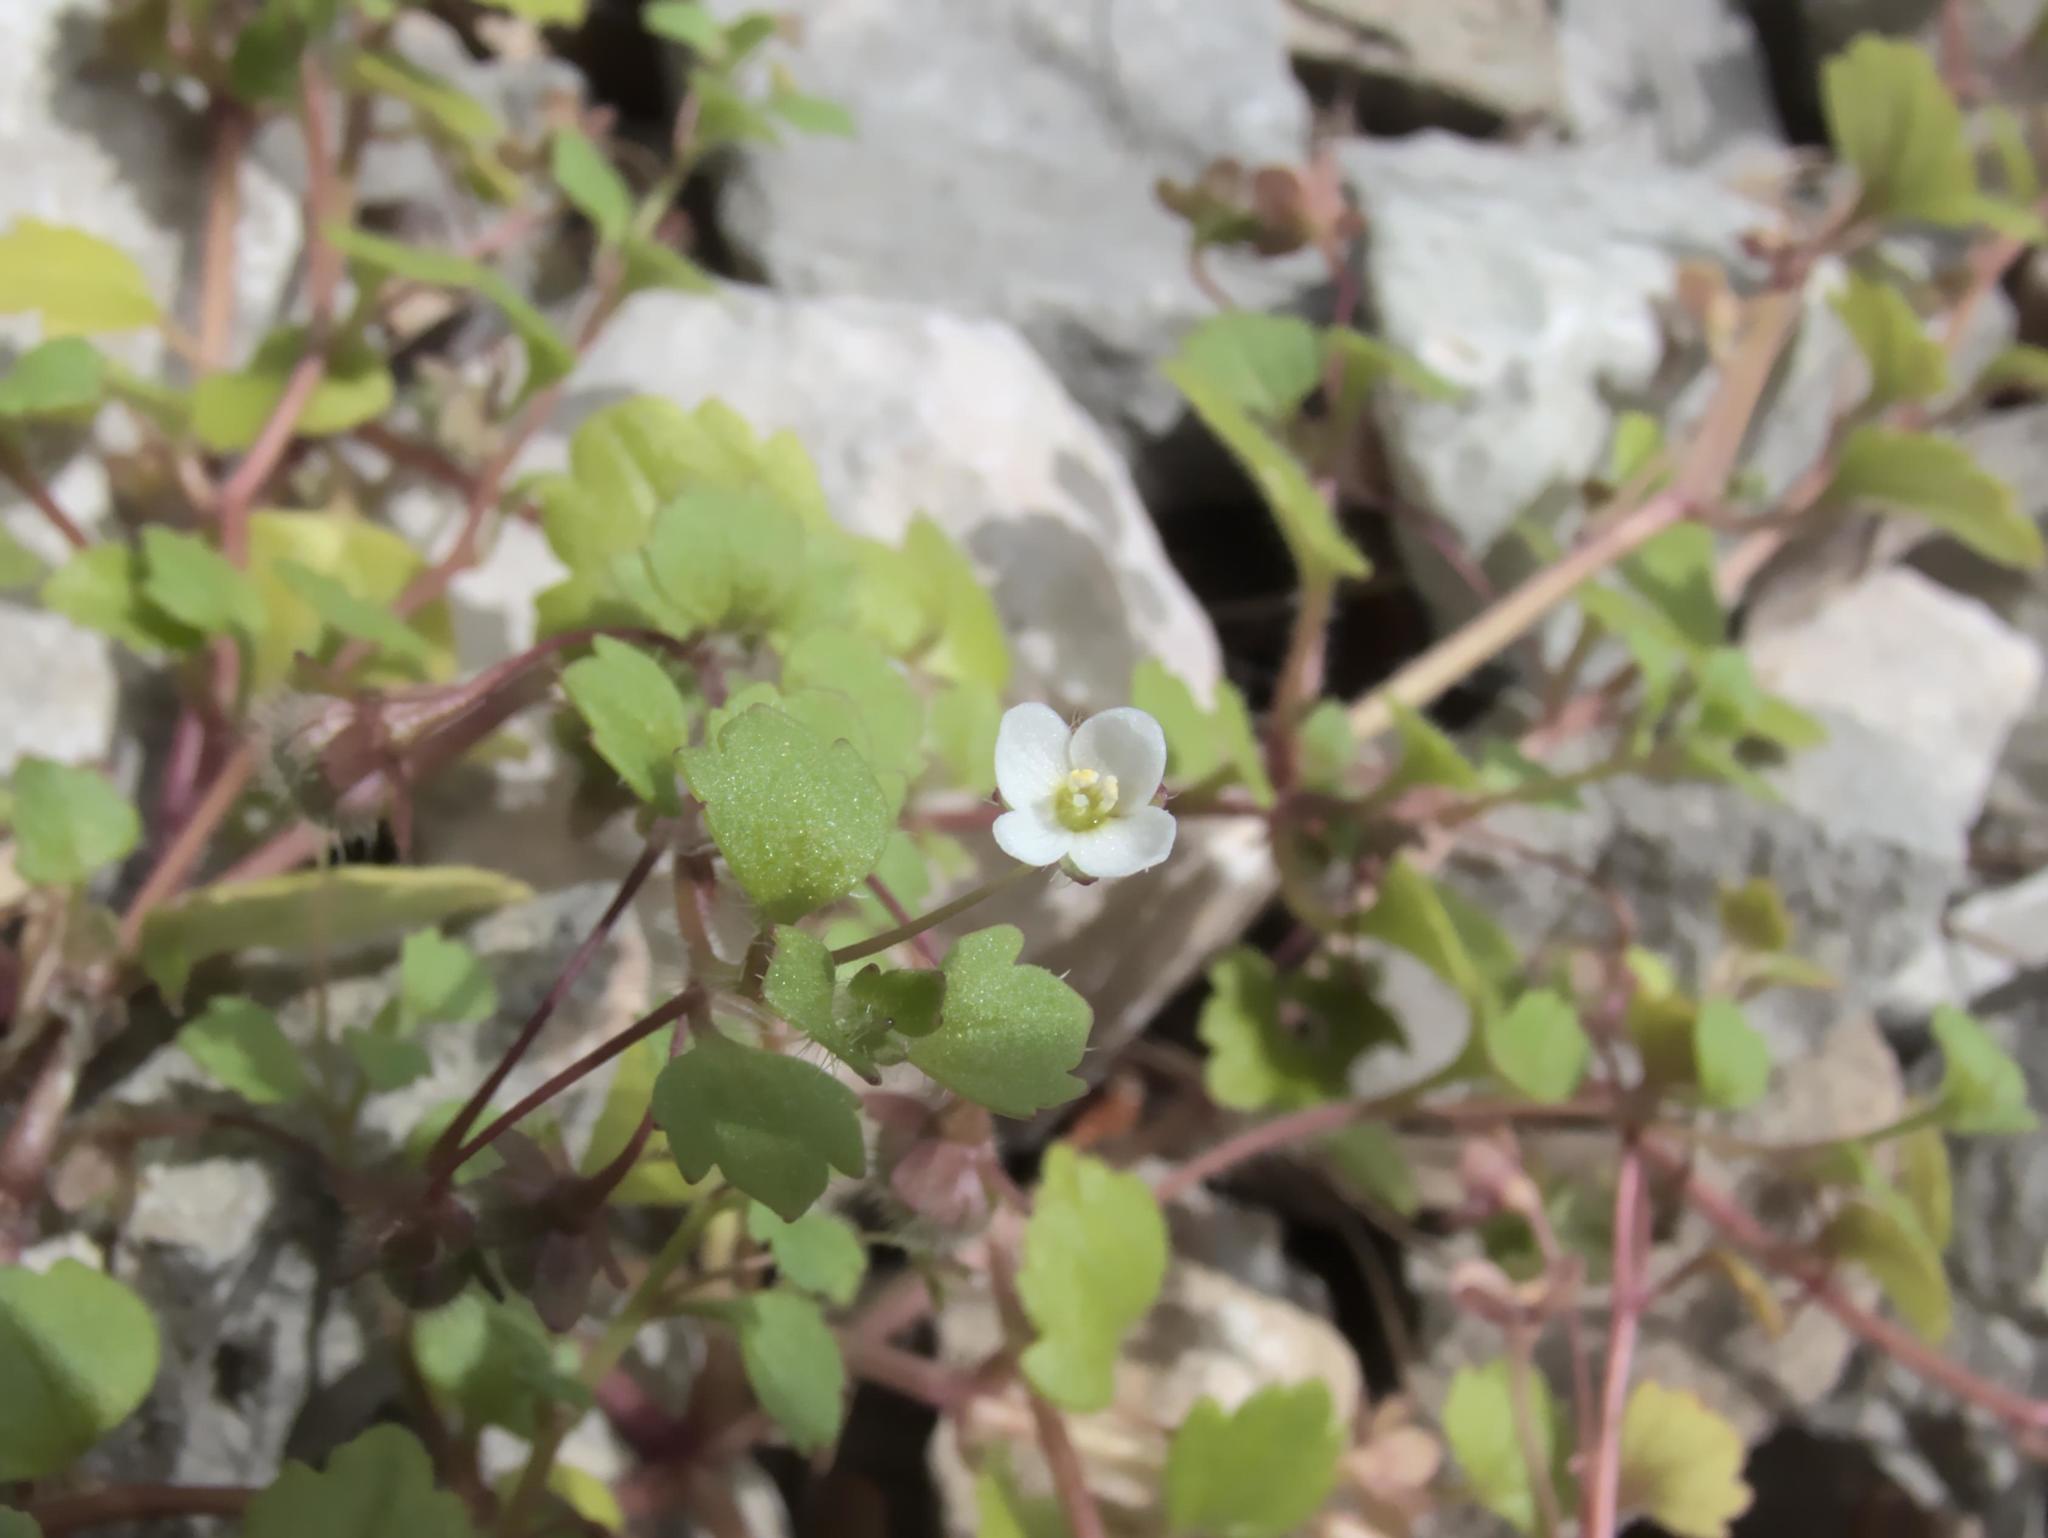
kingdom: Plantae
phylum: Tracheophyta
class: Magnoliopsida
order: Lamiales
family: Plantaginaceae
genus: Veronica
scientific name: Veronica cymbalaria
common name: Pale speedwell
